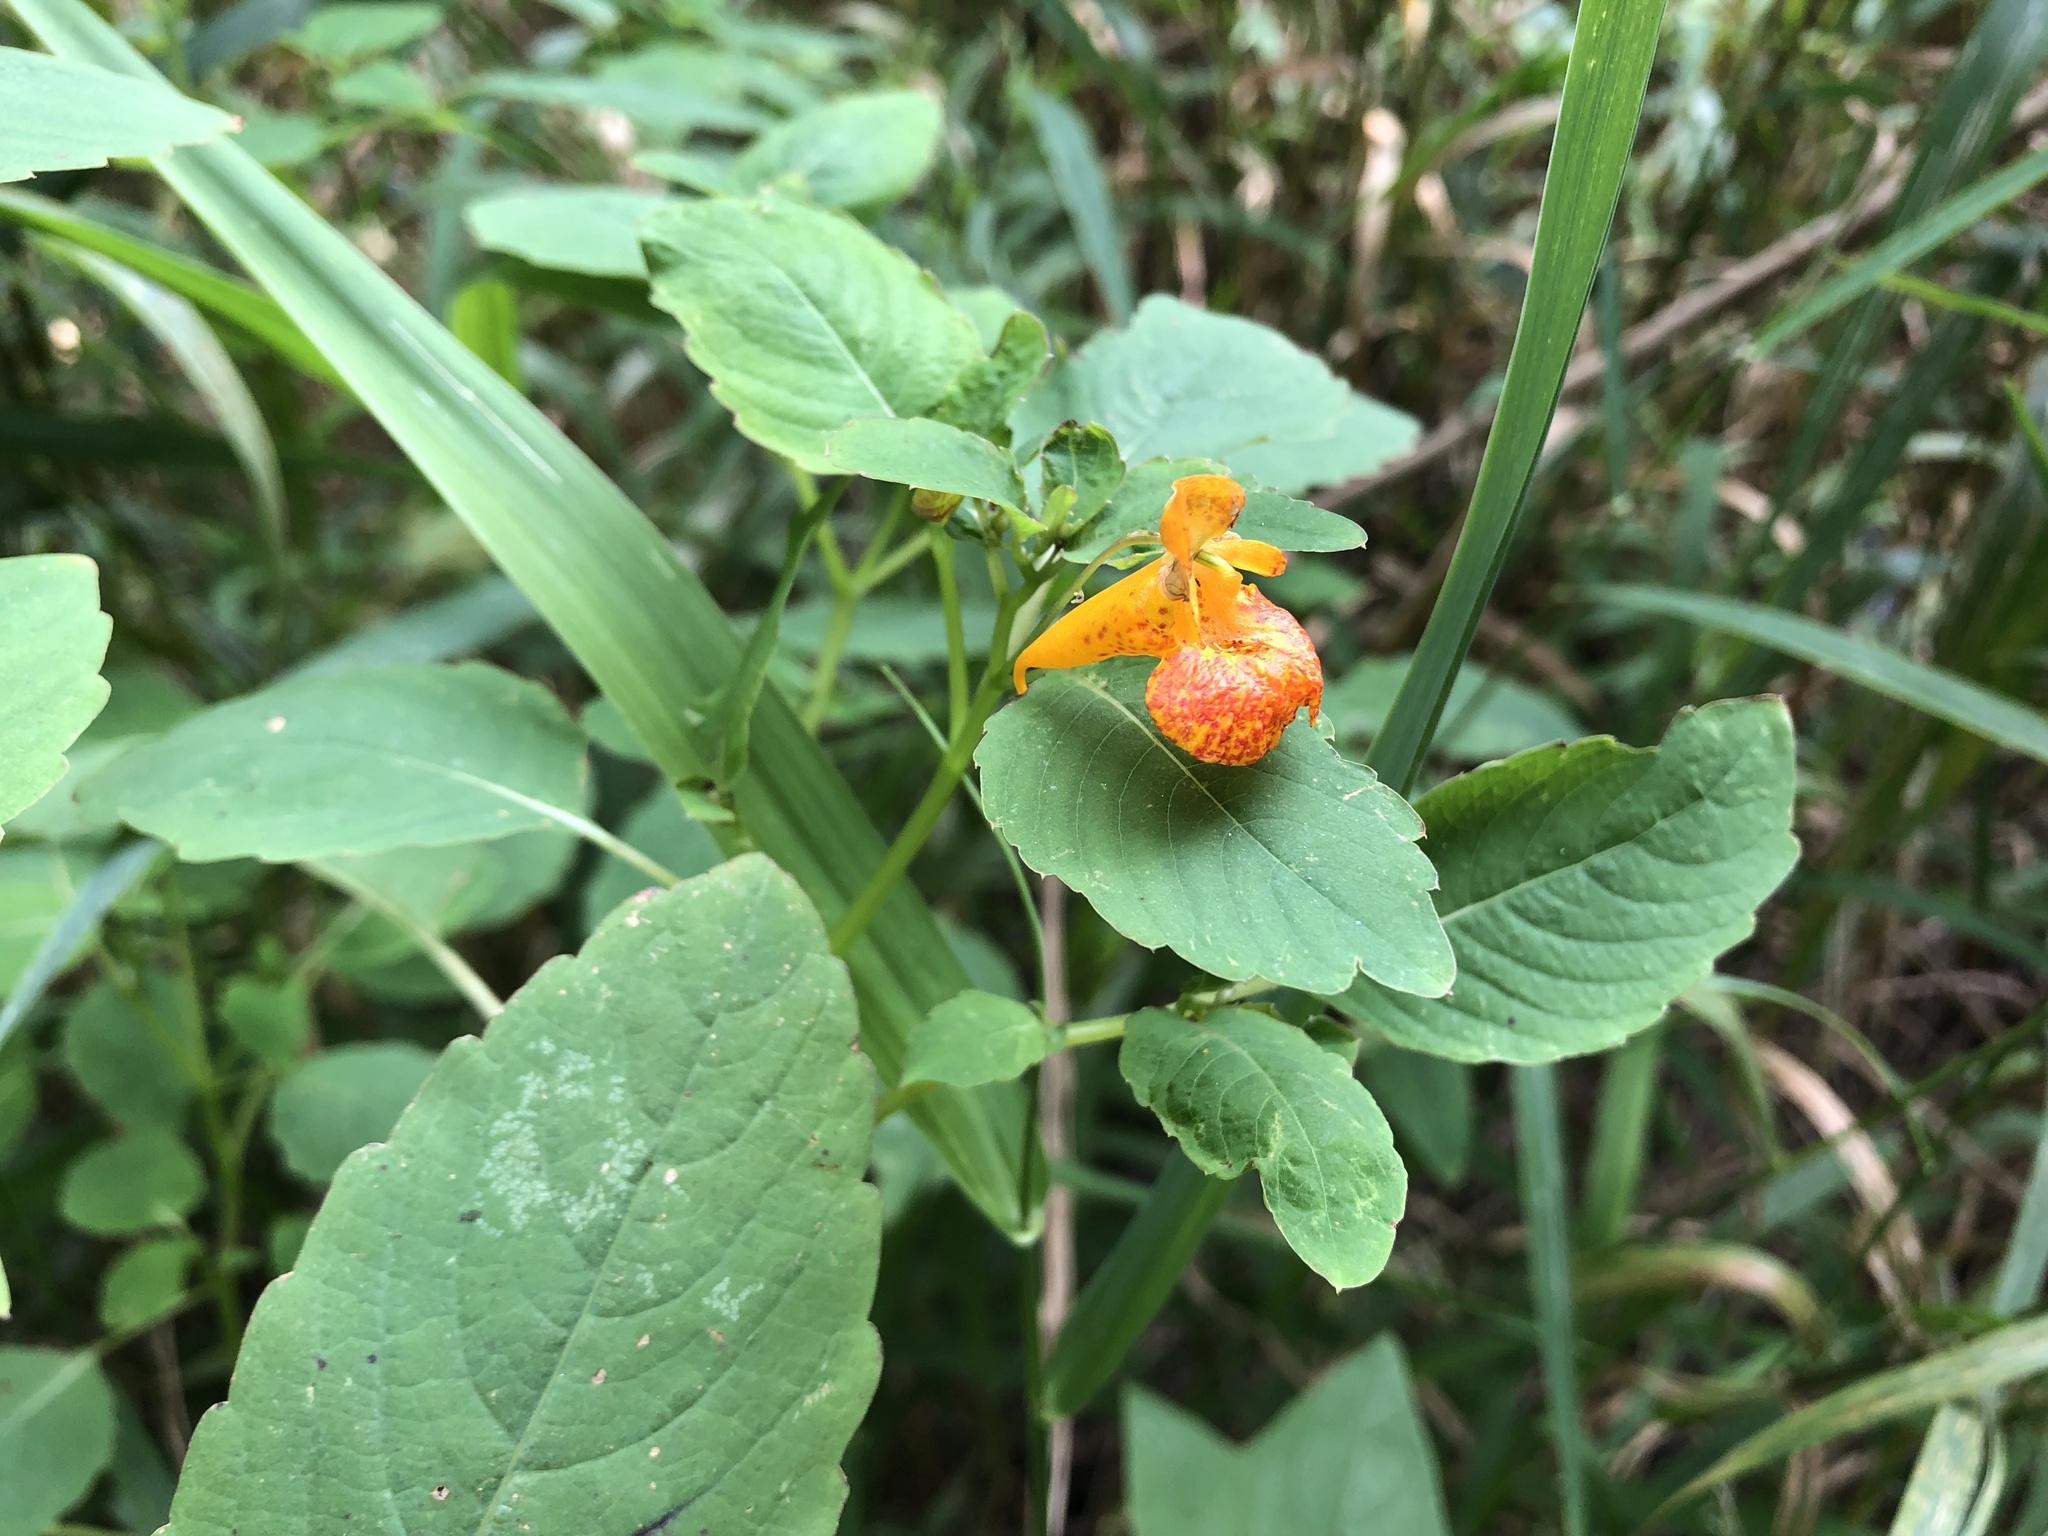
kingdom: Plantae
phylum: Tracheophyta
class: Magnoliopsida
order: Ericales
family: Balsaminaceae
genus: Impatiens
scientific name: Impatiens capensis
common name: Orange balsam
